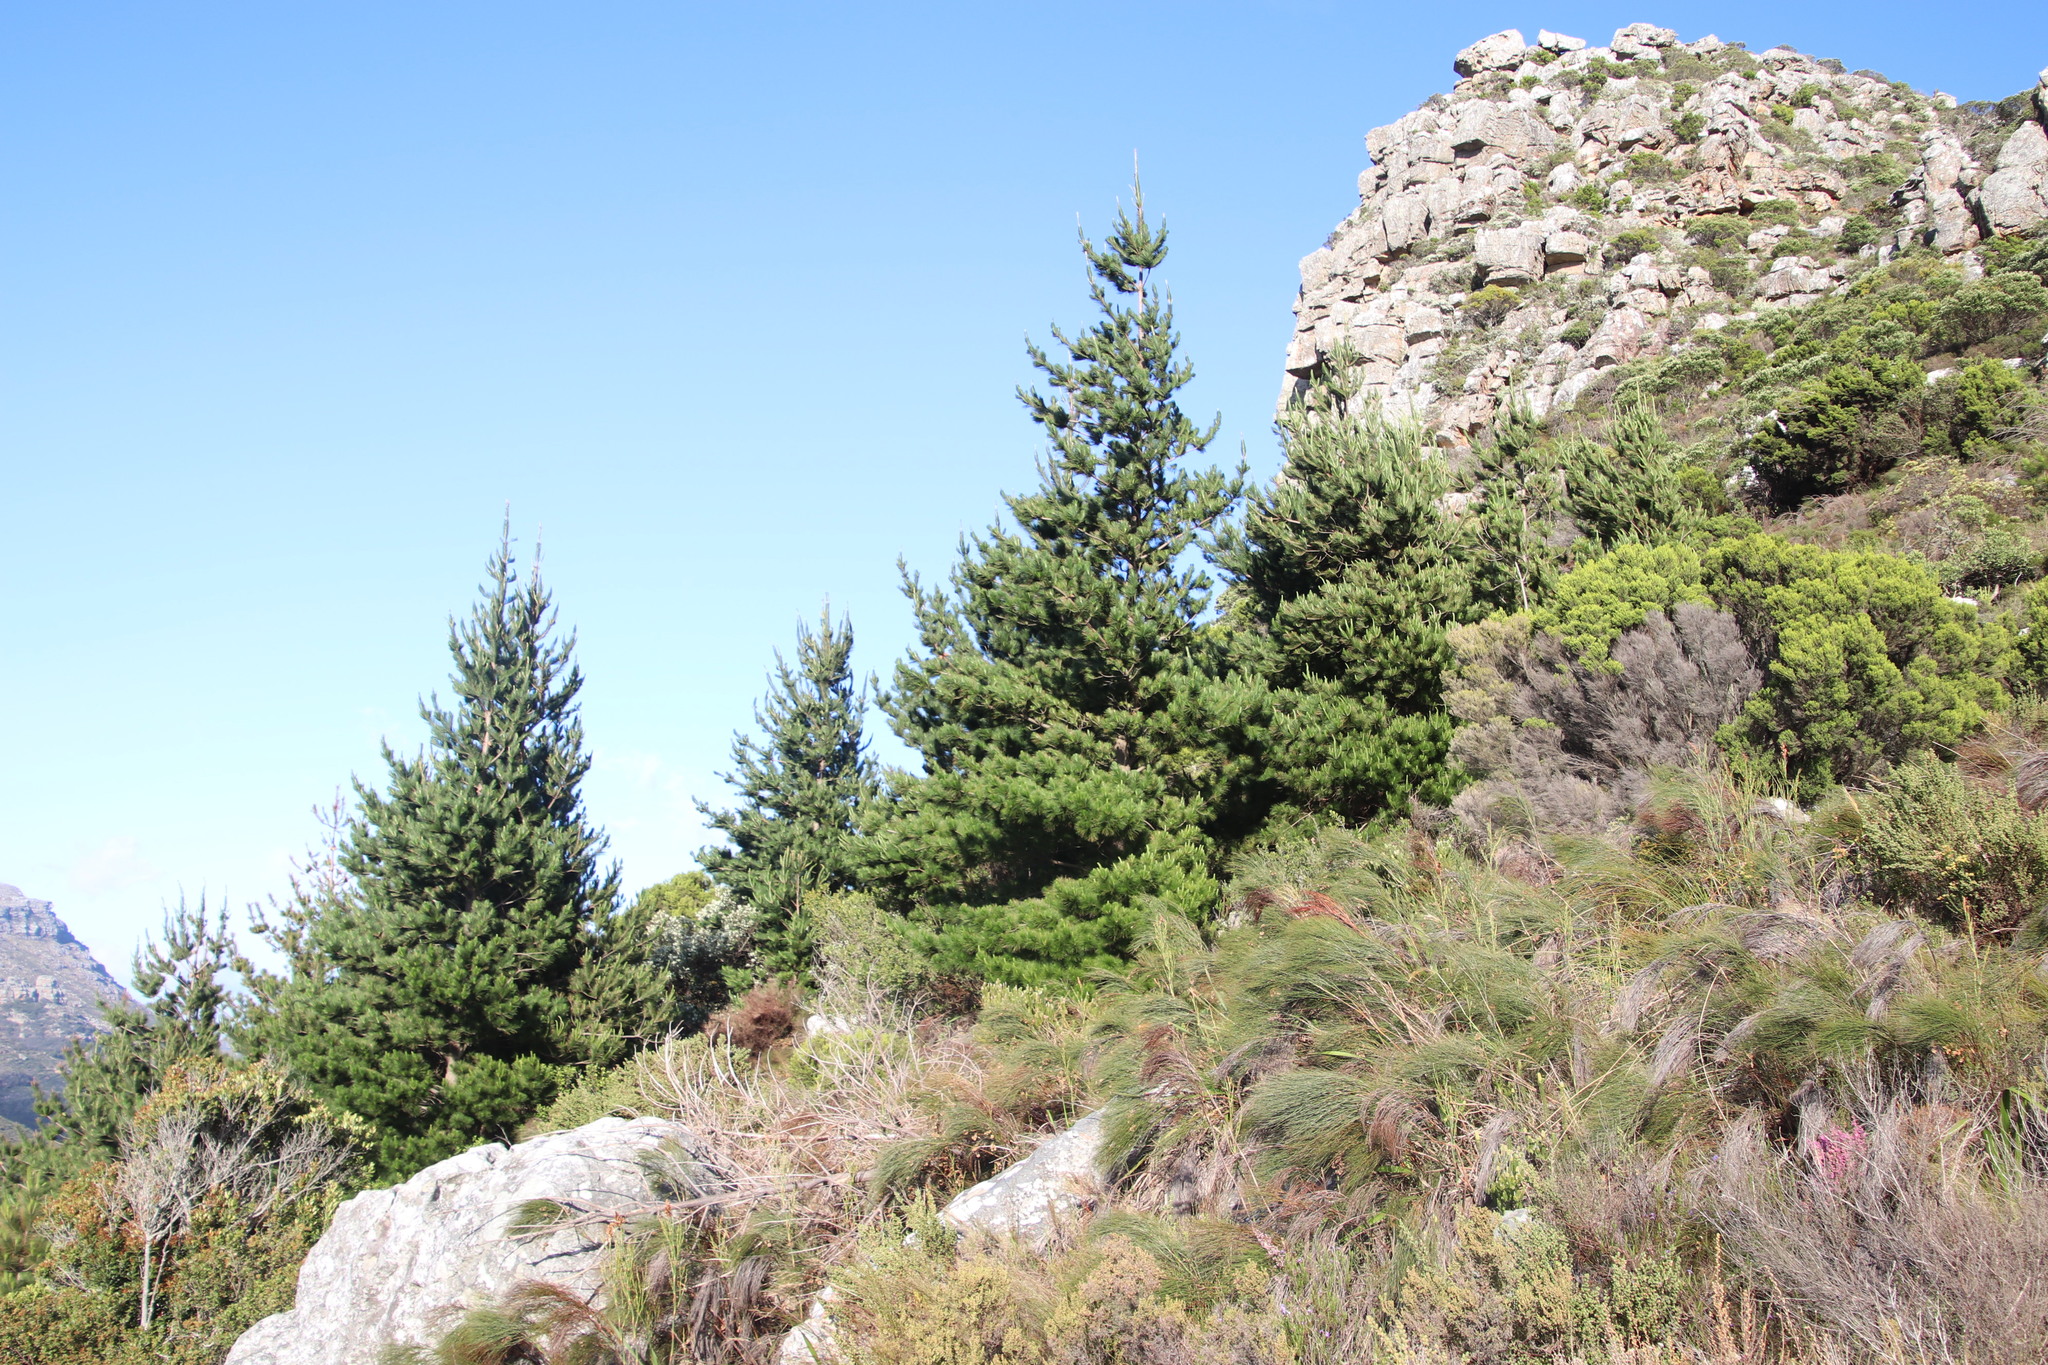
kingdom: Plantae
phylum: Tracheophyta
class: Pinopsida
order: Pinales
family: Pinaceae
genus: Pinus
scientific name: Pinus radiata
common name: Monterey pine
